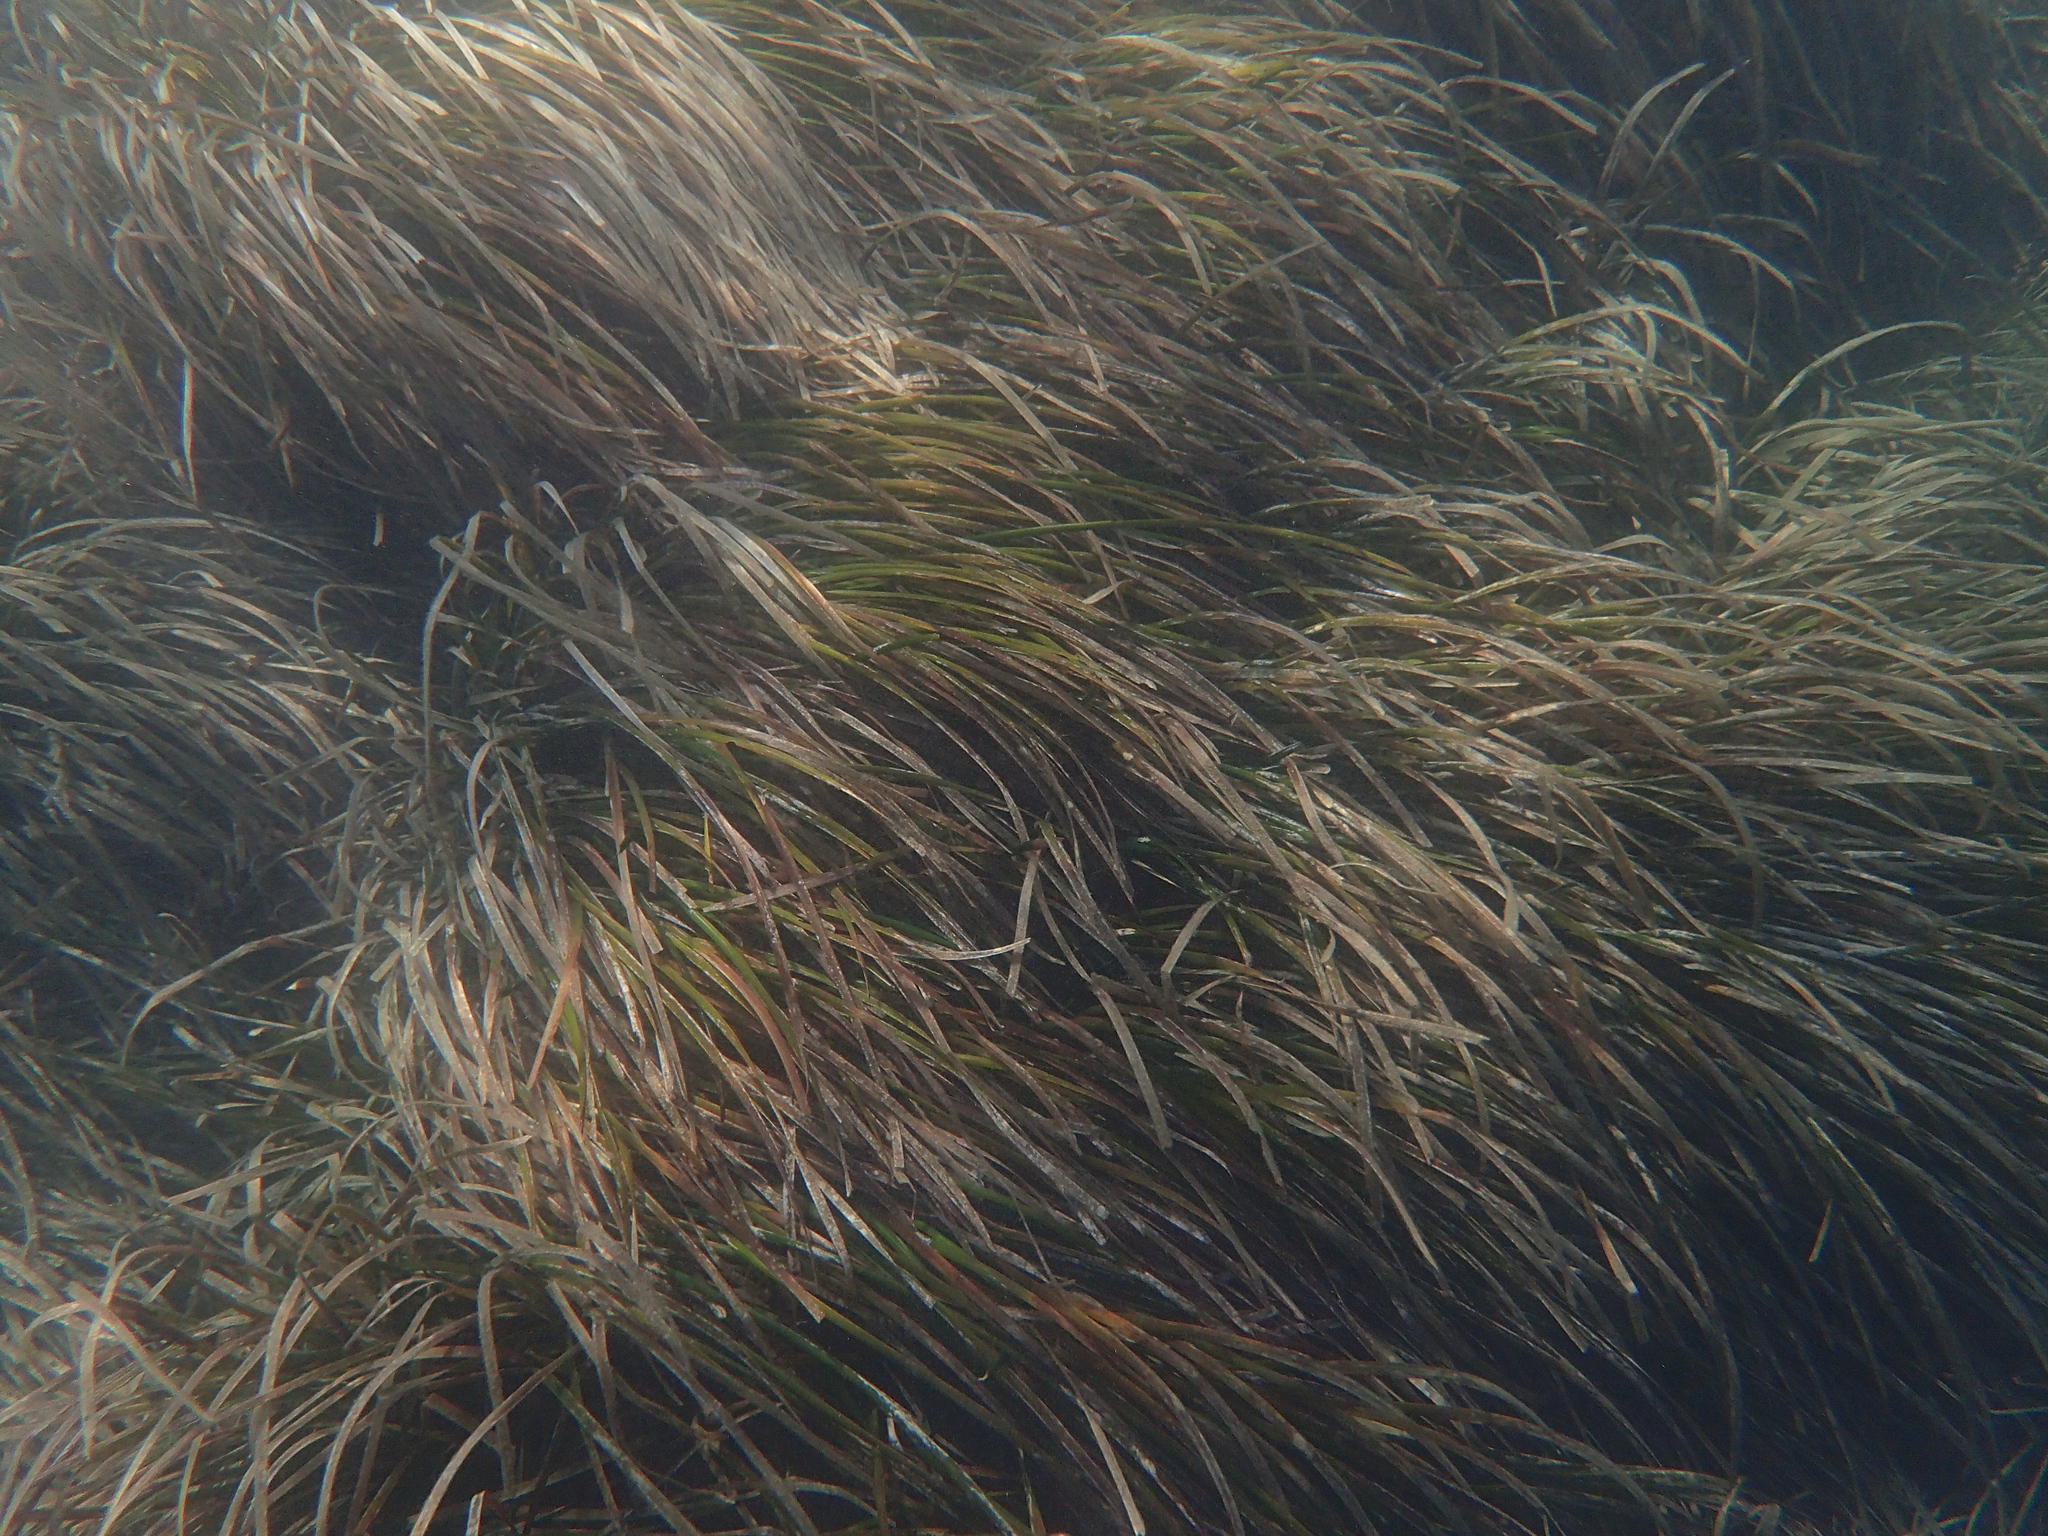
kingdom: Plantae
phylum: Tracheophyta
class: Liliopsida
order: Alismatales
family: Posidoniaceae
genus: Posidonia
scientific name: Posidonia oceanica
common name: Mediterranean tapeweed
